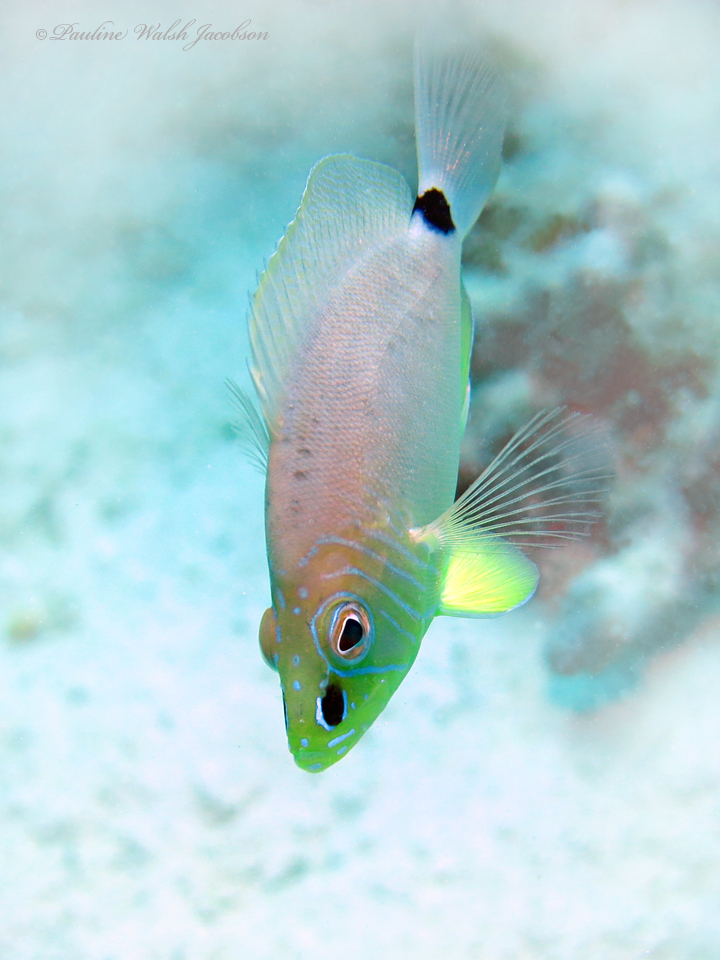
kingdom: Animalia
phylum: Chordata
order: Perciformes
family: Serranidae
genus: Hypoplectrus
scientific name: Hypoplectrus unicolor
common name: Butter hamlet
